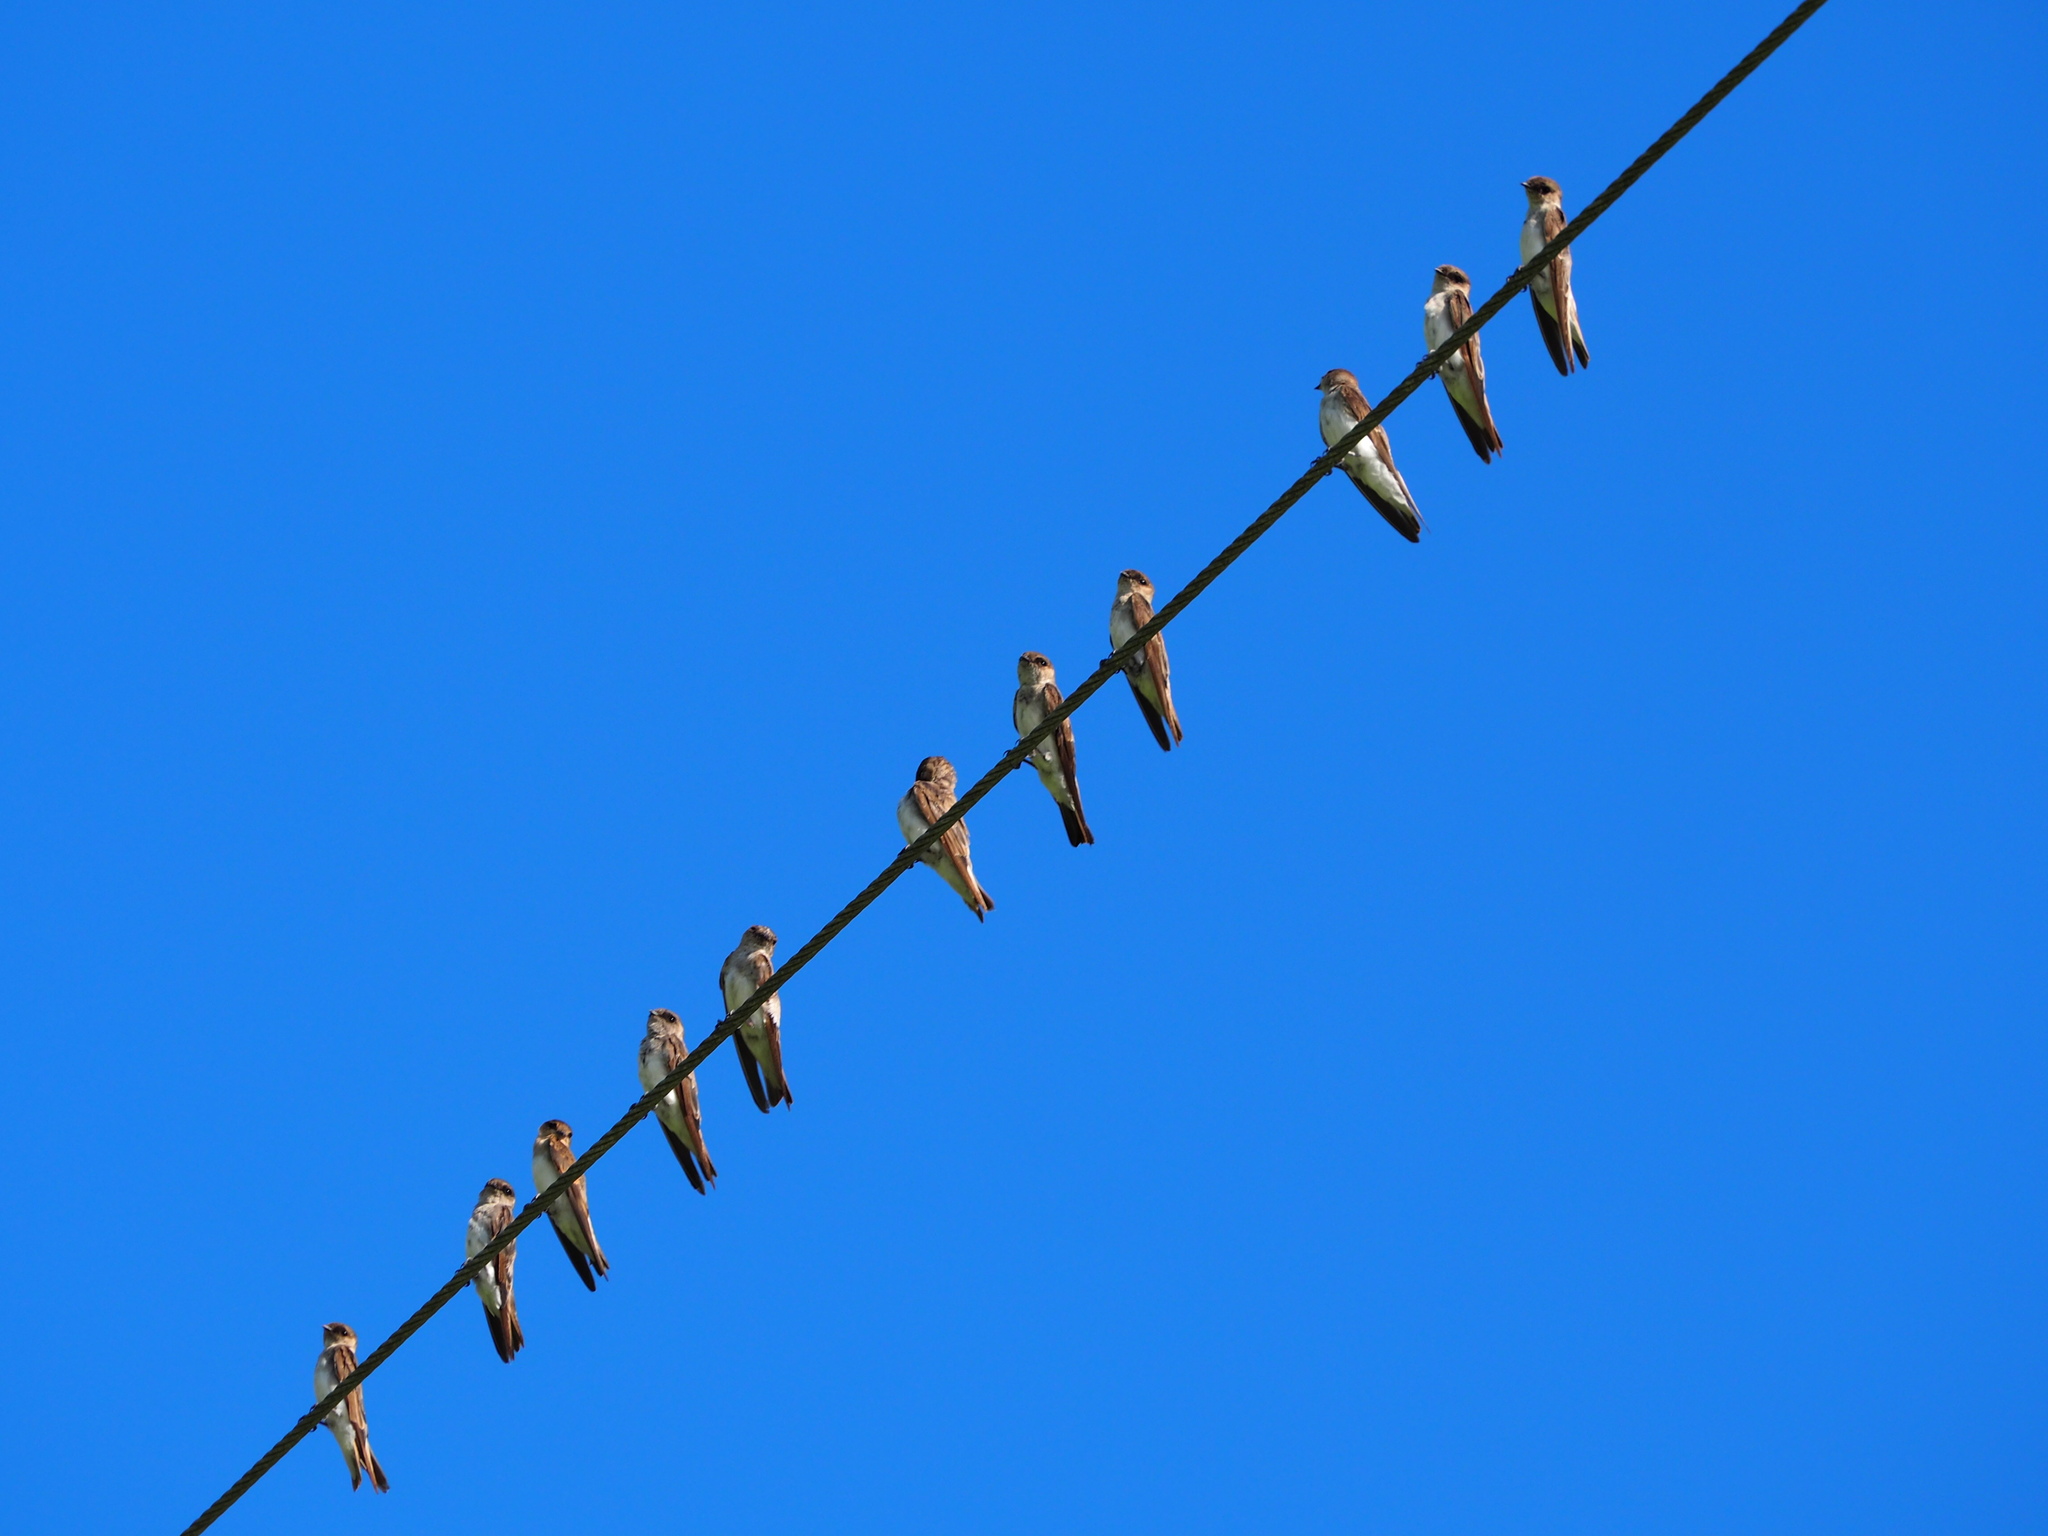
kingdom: Animalia
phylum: Chordata
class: Aves
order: Passeriformes
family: Hirundinidae
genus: Riparia
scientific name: Riparia chinensis
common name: Gray-throated martin
